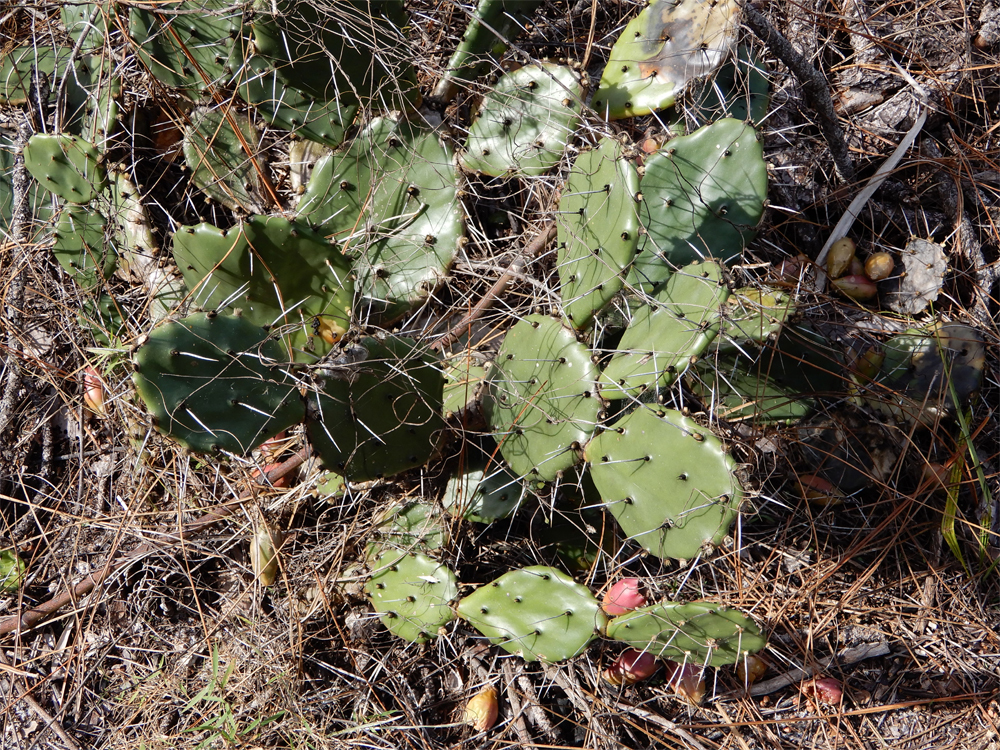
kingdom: Plantae
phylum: Tracheophyta
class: Magnoliopsida
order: Caryophyllales
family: Cactaceae
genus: Opuntia
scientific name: Opuntia austrina
